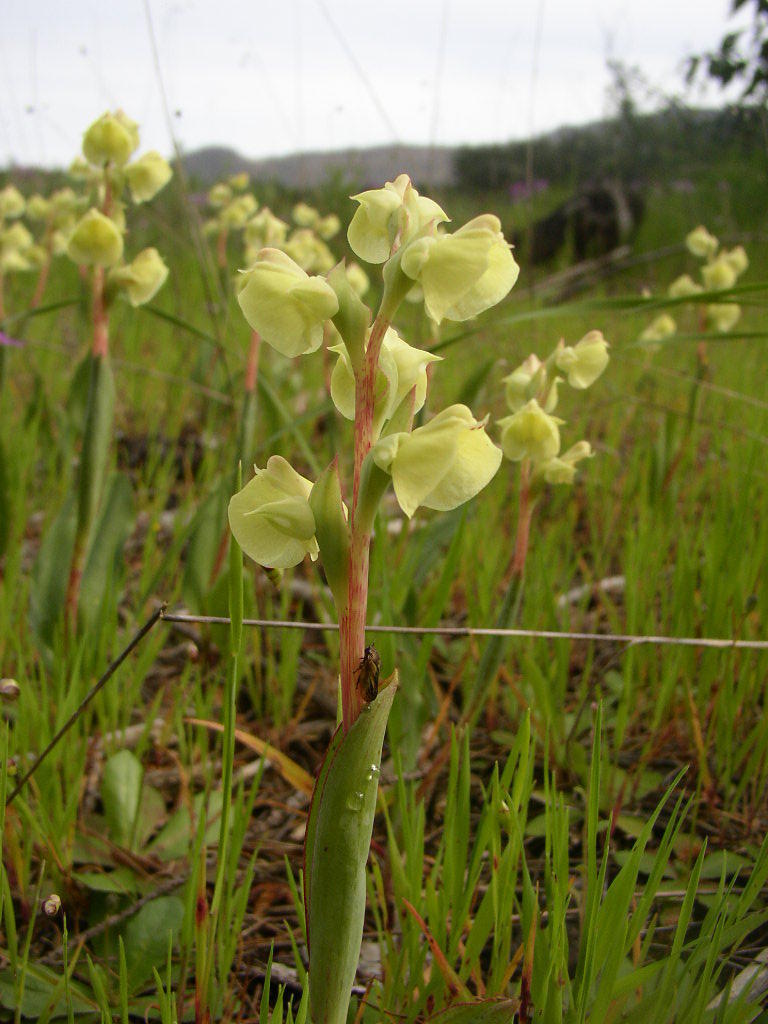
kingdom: Plantae
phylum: Tracheophyta
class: Liliopsida
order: Asparagales
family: Orchidaceae
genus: Pterygodium
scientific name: Pterygodium catholicum
